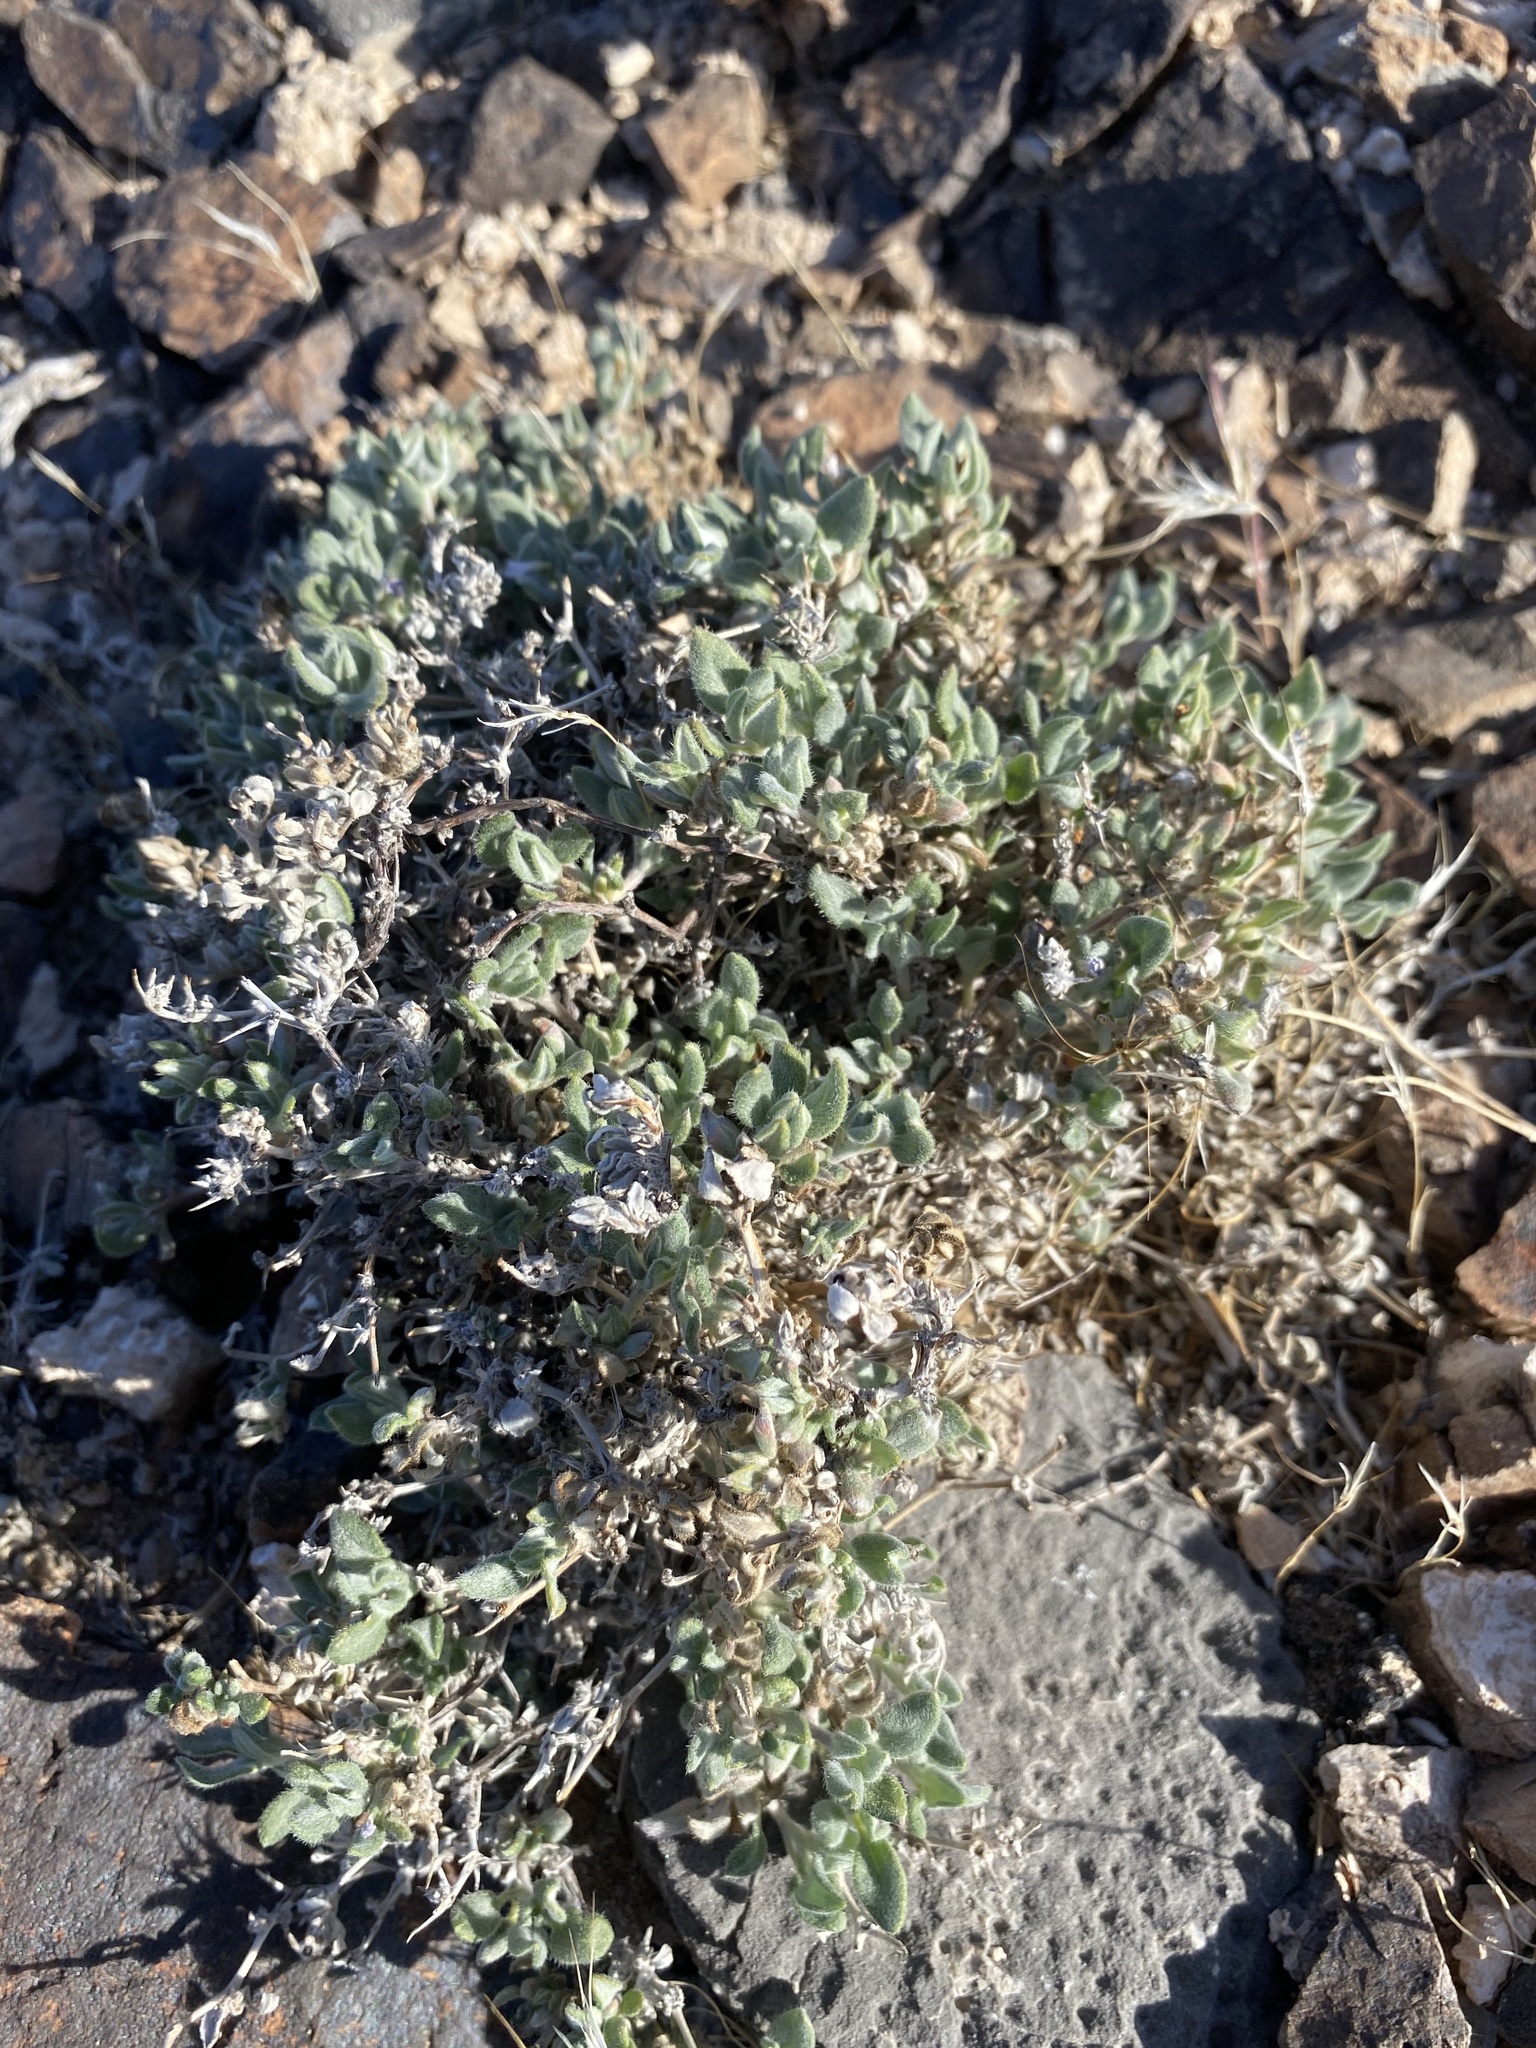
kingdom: Plantae
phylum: Tracheophyta
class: Magnoliopsida
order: Boraginales
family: Ehretiaceae
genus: Tiquilia
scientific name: Tiquilia canescens
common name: Hairy tiquilia
